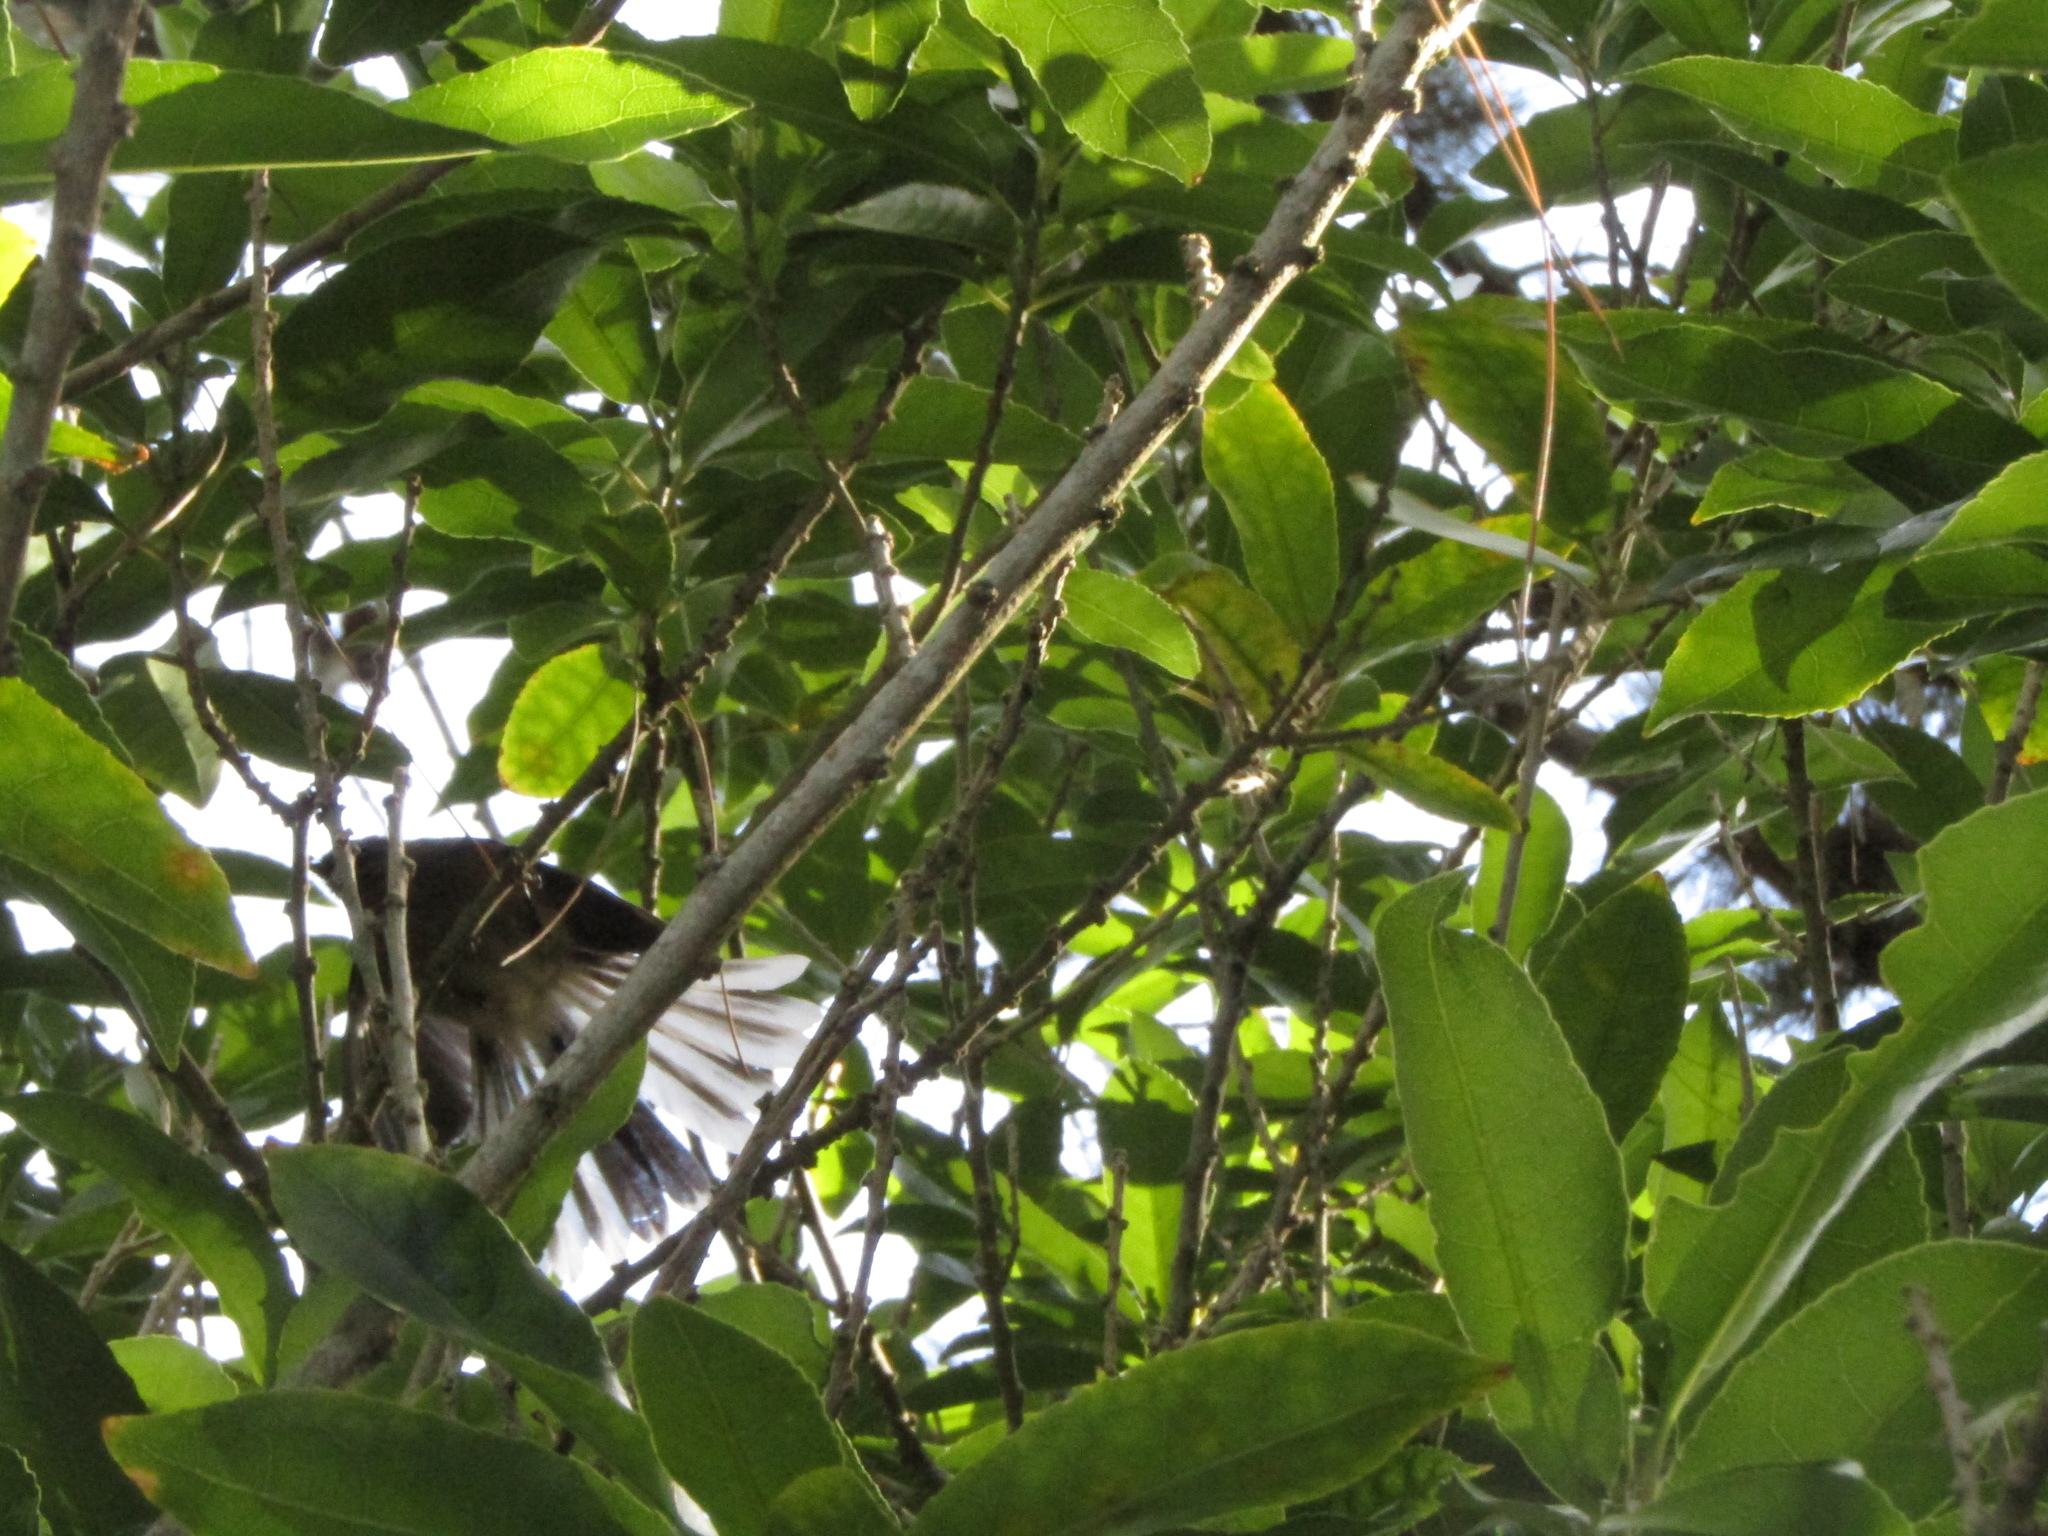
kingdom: Animalia
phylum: Chordata
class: Aves
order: Passeriformes
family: Rhipiduridae
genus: Rhipidura
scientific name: Rhipidura fuliginosa
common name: New zealand fantail
